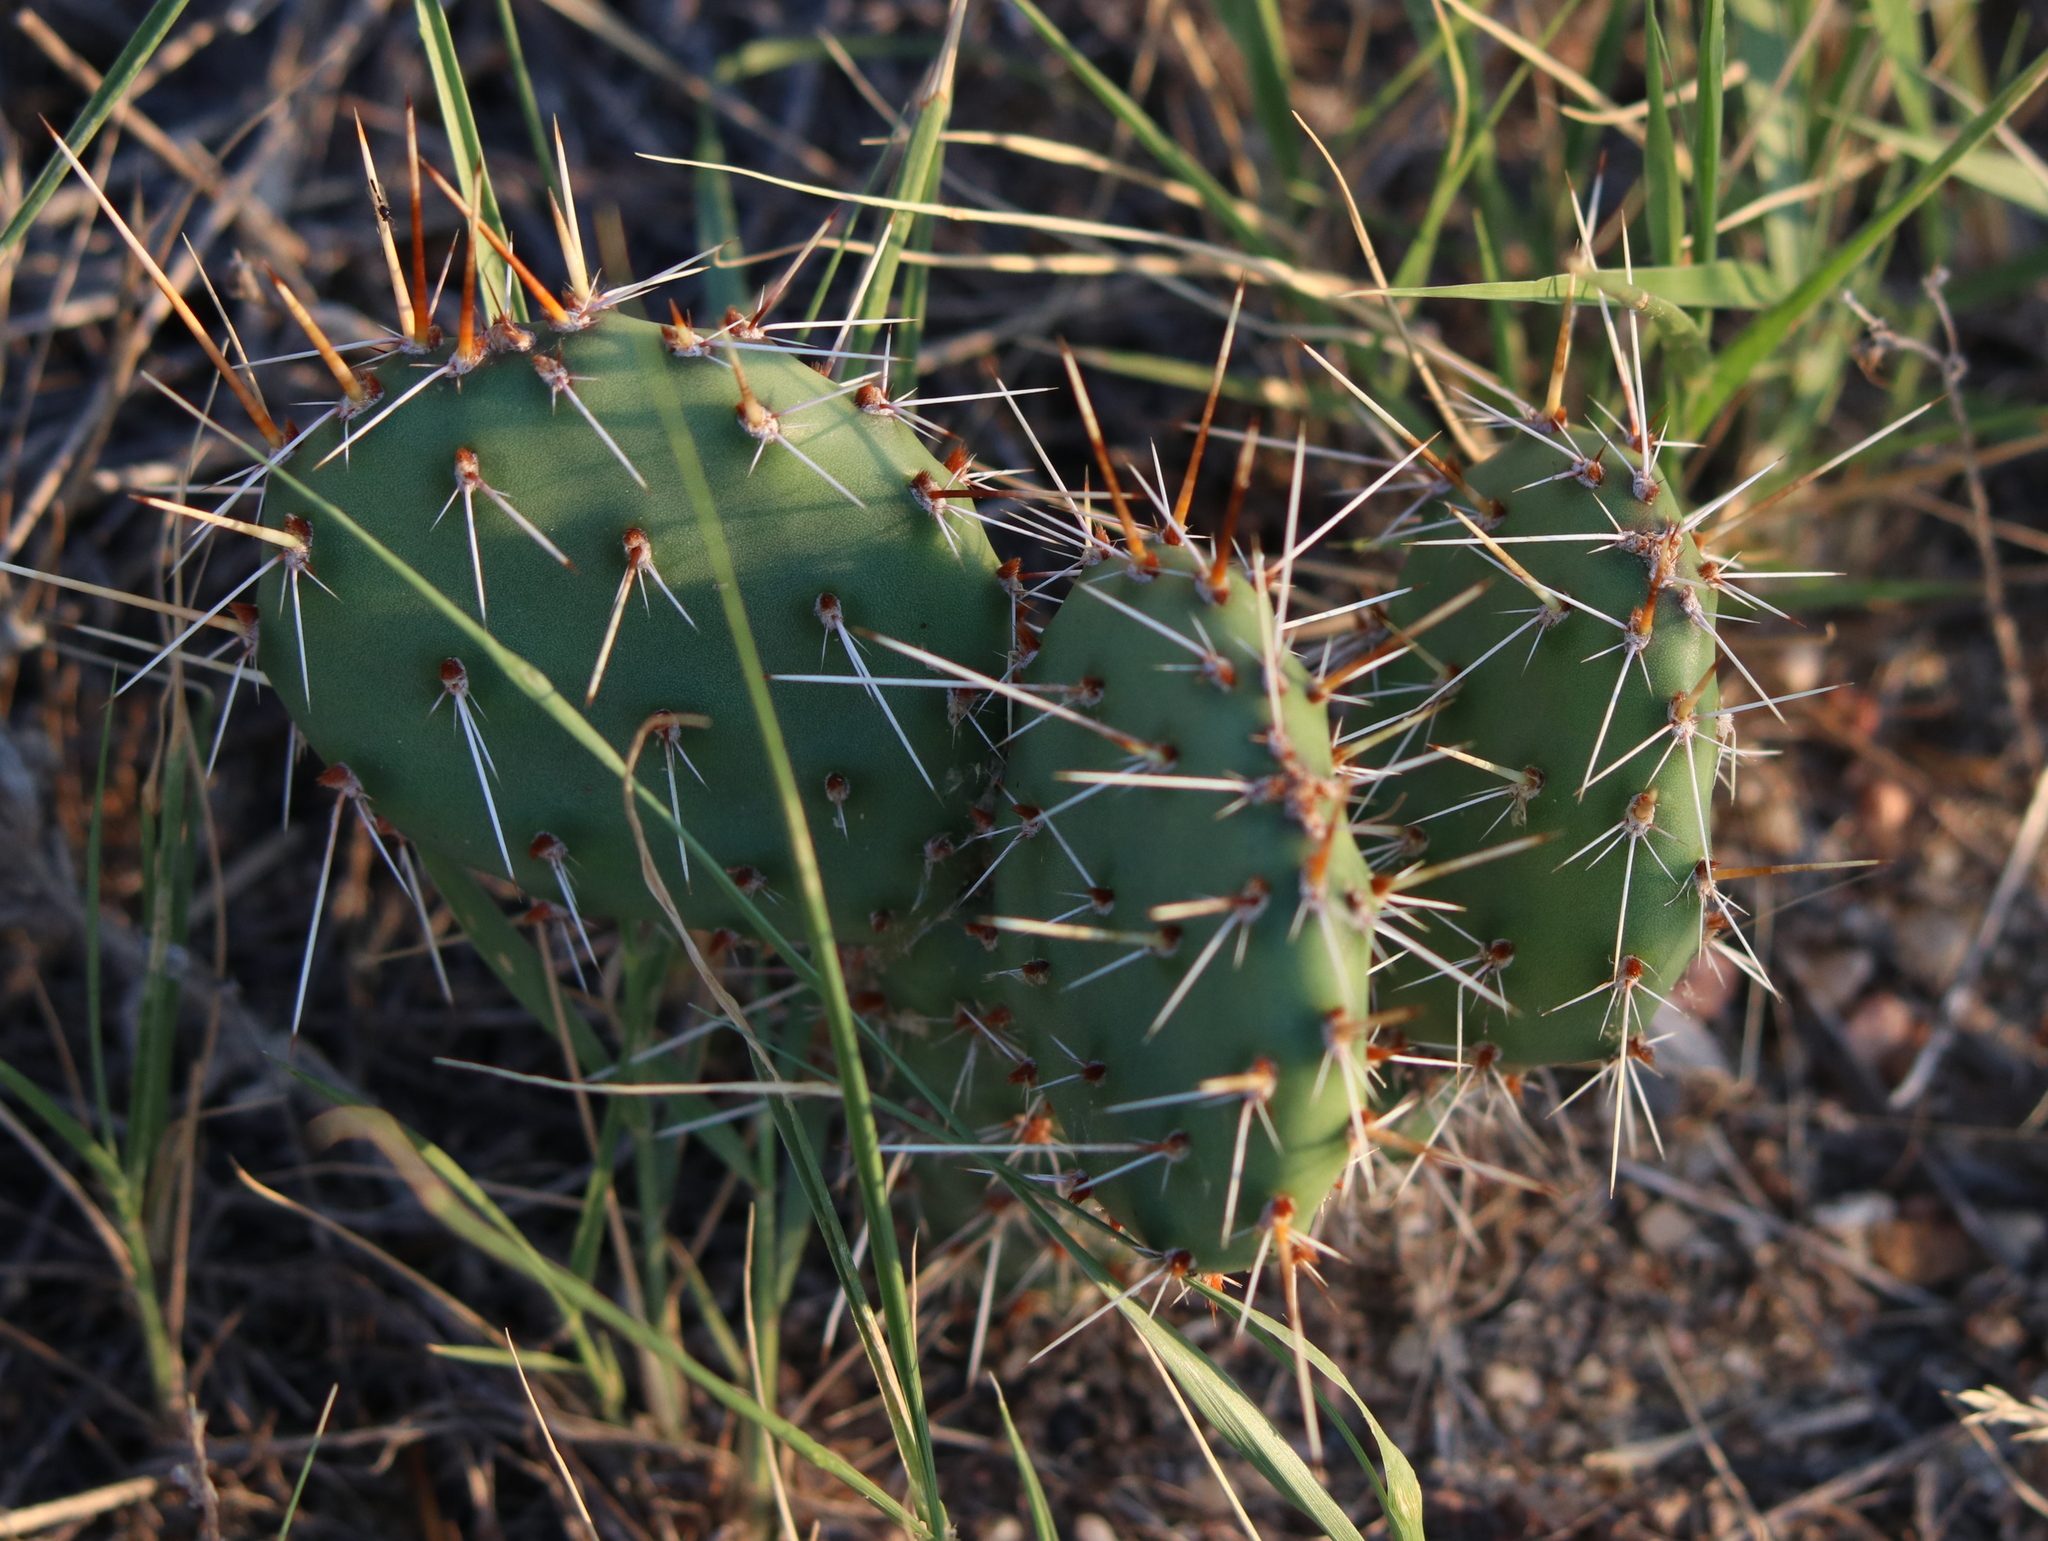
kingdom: Plantae
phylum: Tracheophyta
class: Magnoliopsida
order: Caryophyllales
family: Cactaceae
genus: Opuntia
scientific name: Opuntia macrorhiza
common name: Grassland pricklypear
